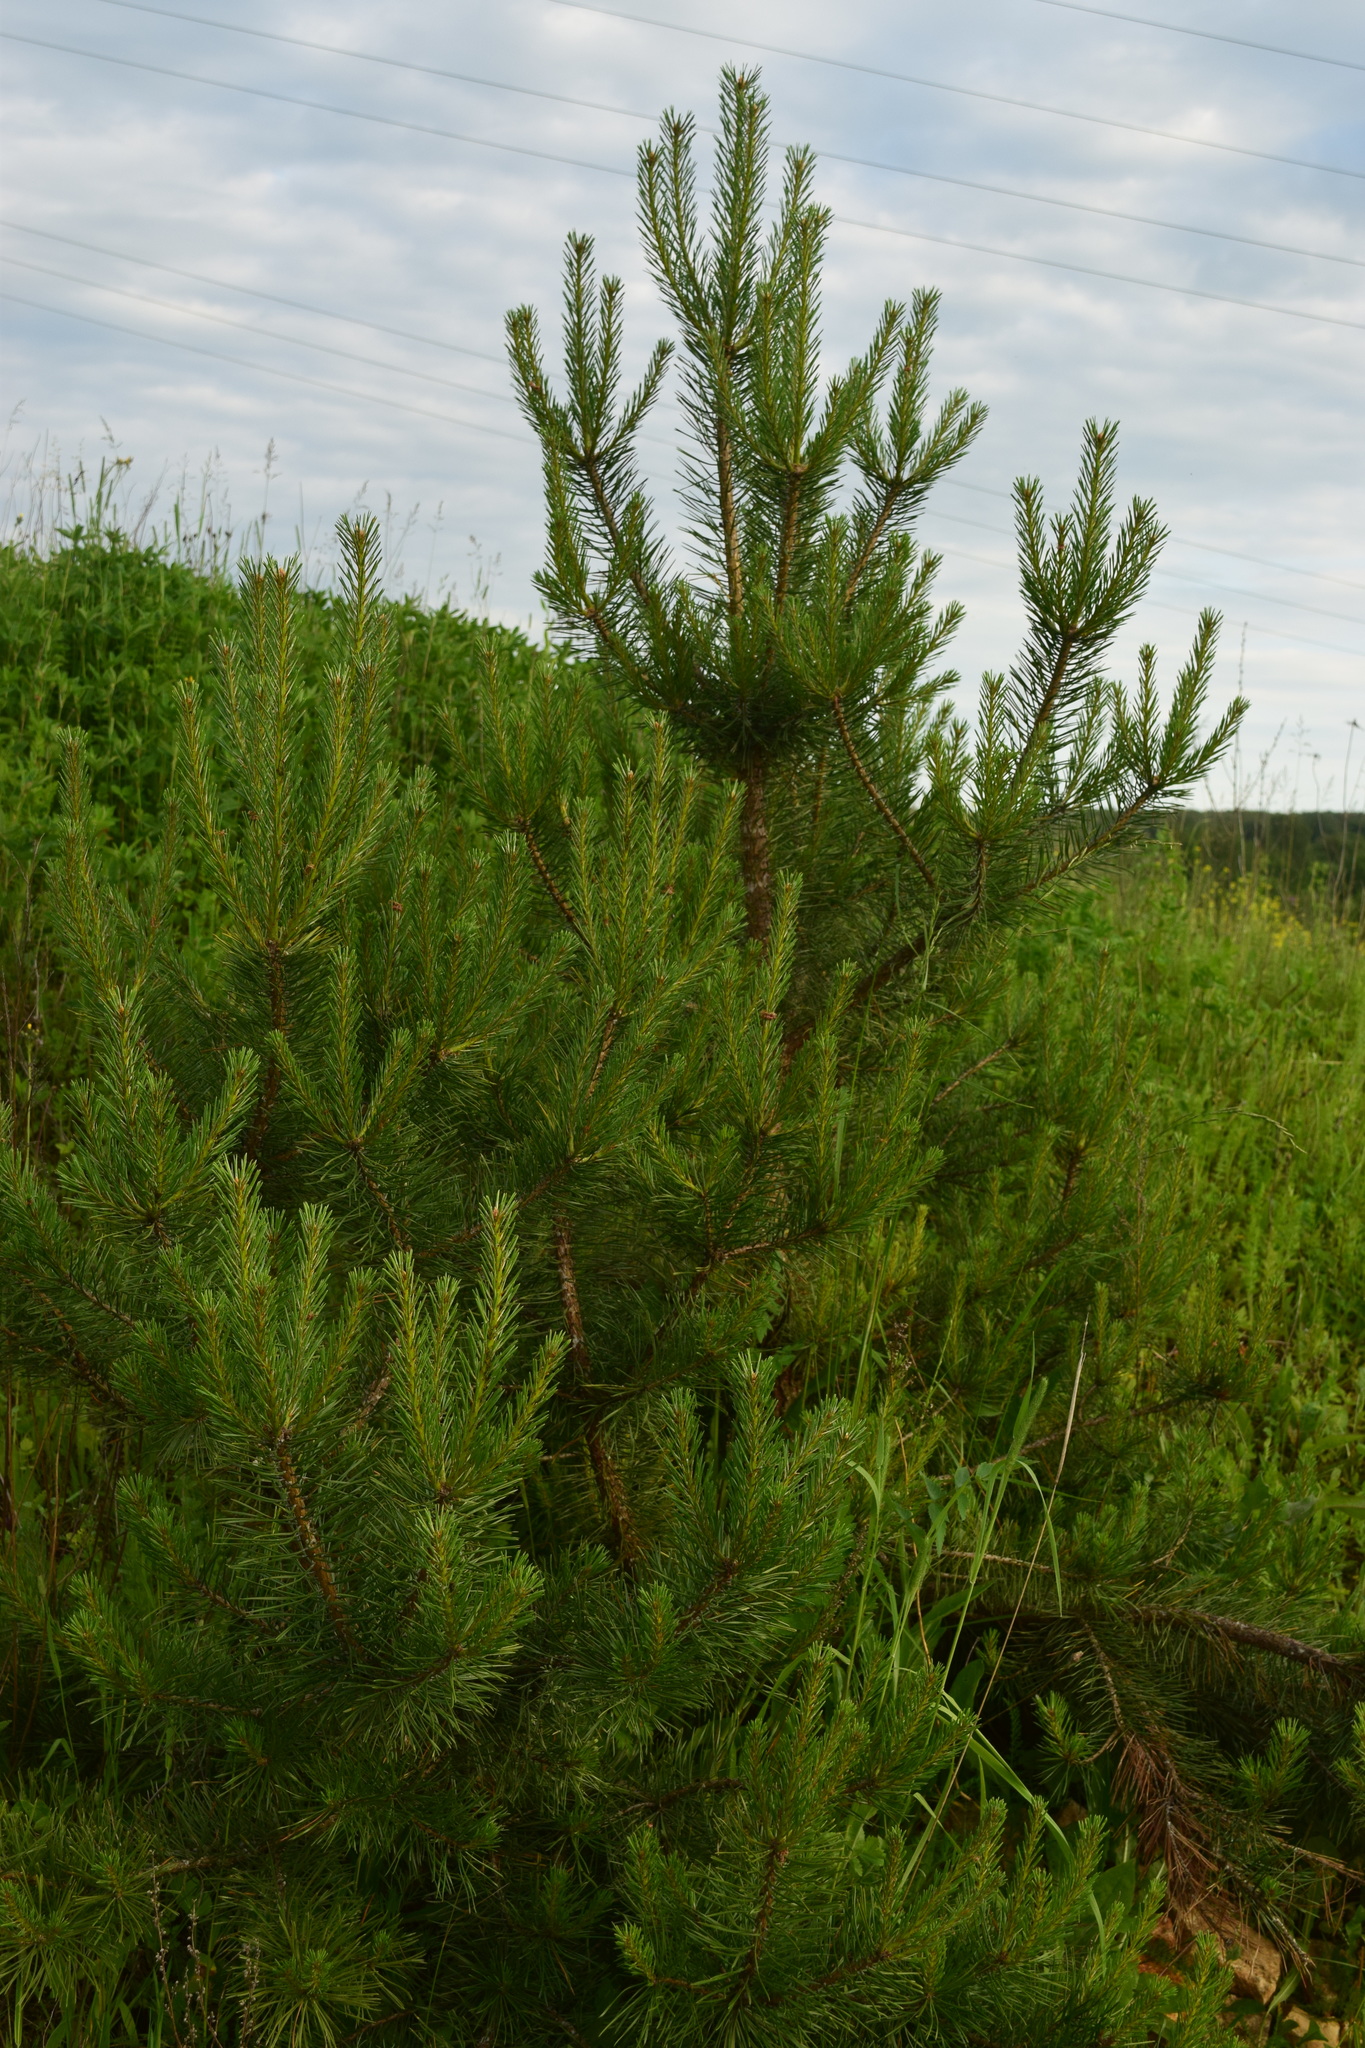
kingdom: Plantae
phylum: Tracheophyta
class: Pinopsida
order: Pinales
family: Pinaceae
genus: Pinus
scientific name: Pinus sylvestris
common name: Scots pine
